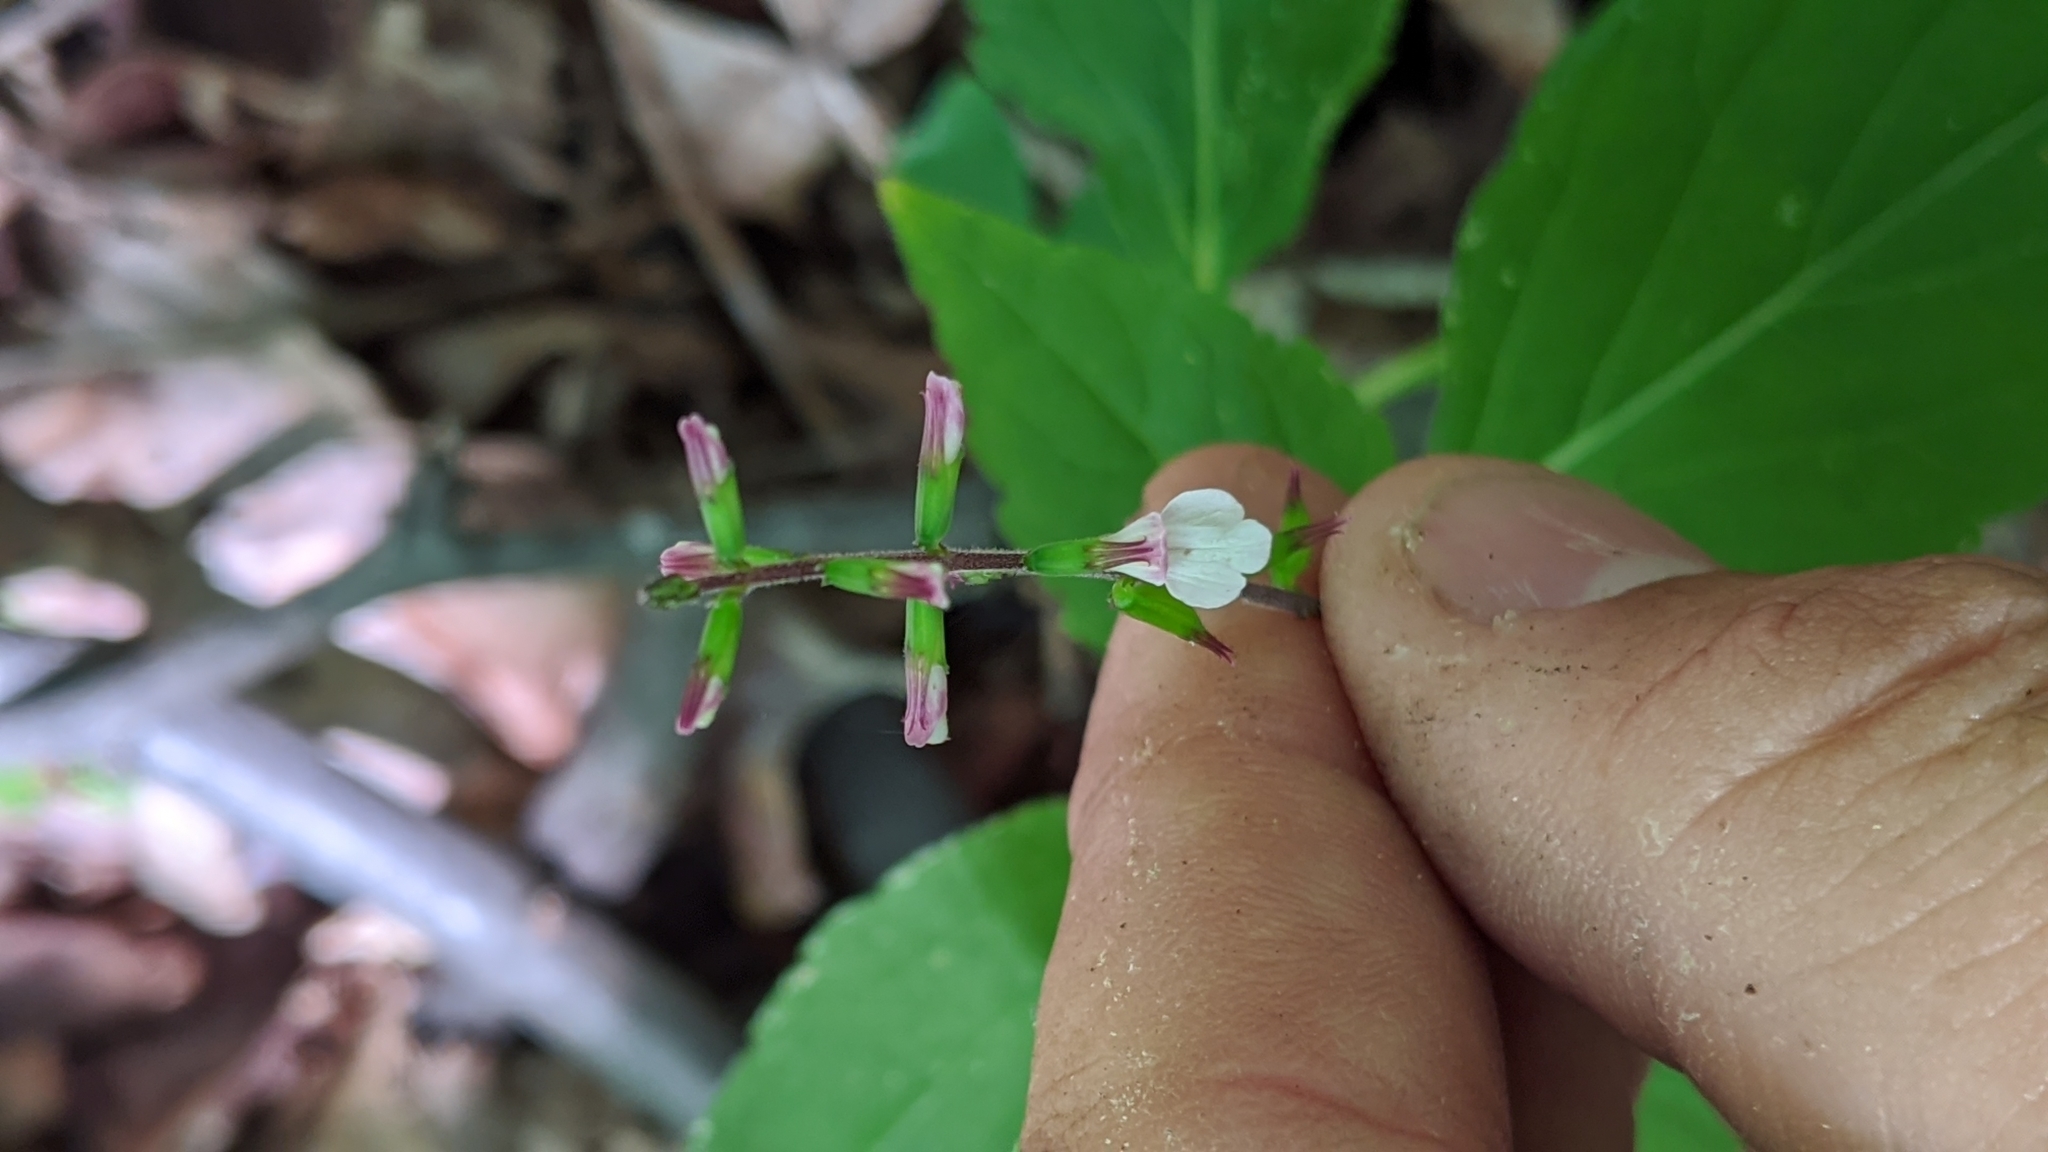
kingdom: Plantae
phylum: Tracheophyta
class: Magnoliopsida
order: Lamiales
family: Phrymaceae
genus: Phryma
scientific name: Phryma leptostachya
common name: American lopseed
